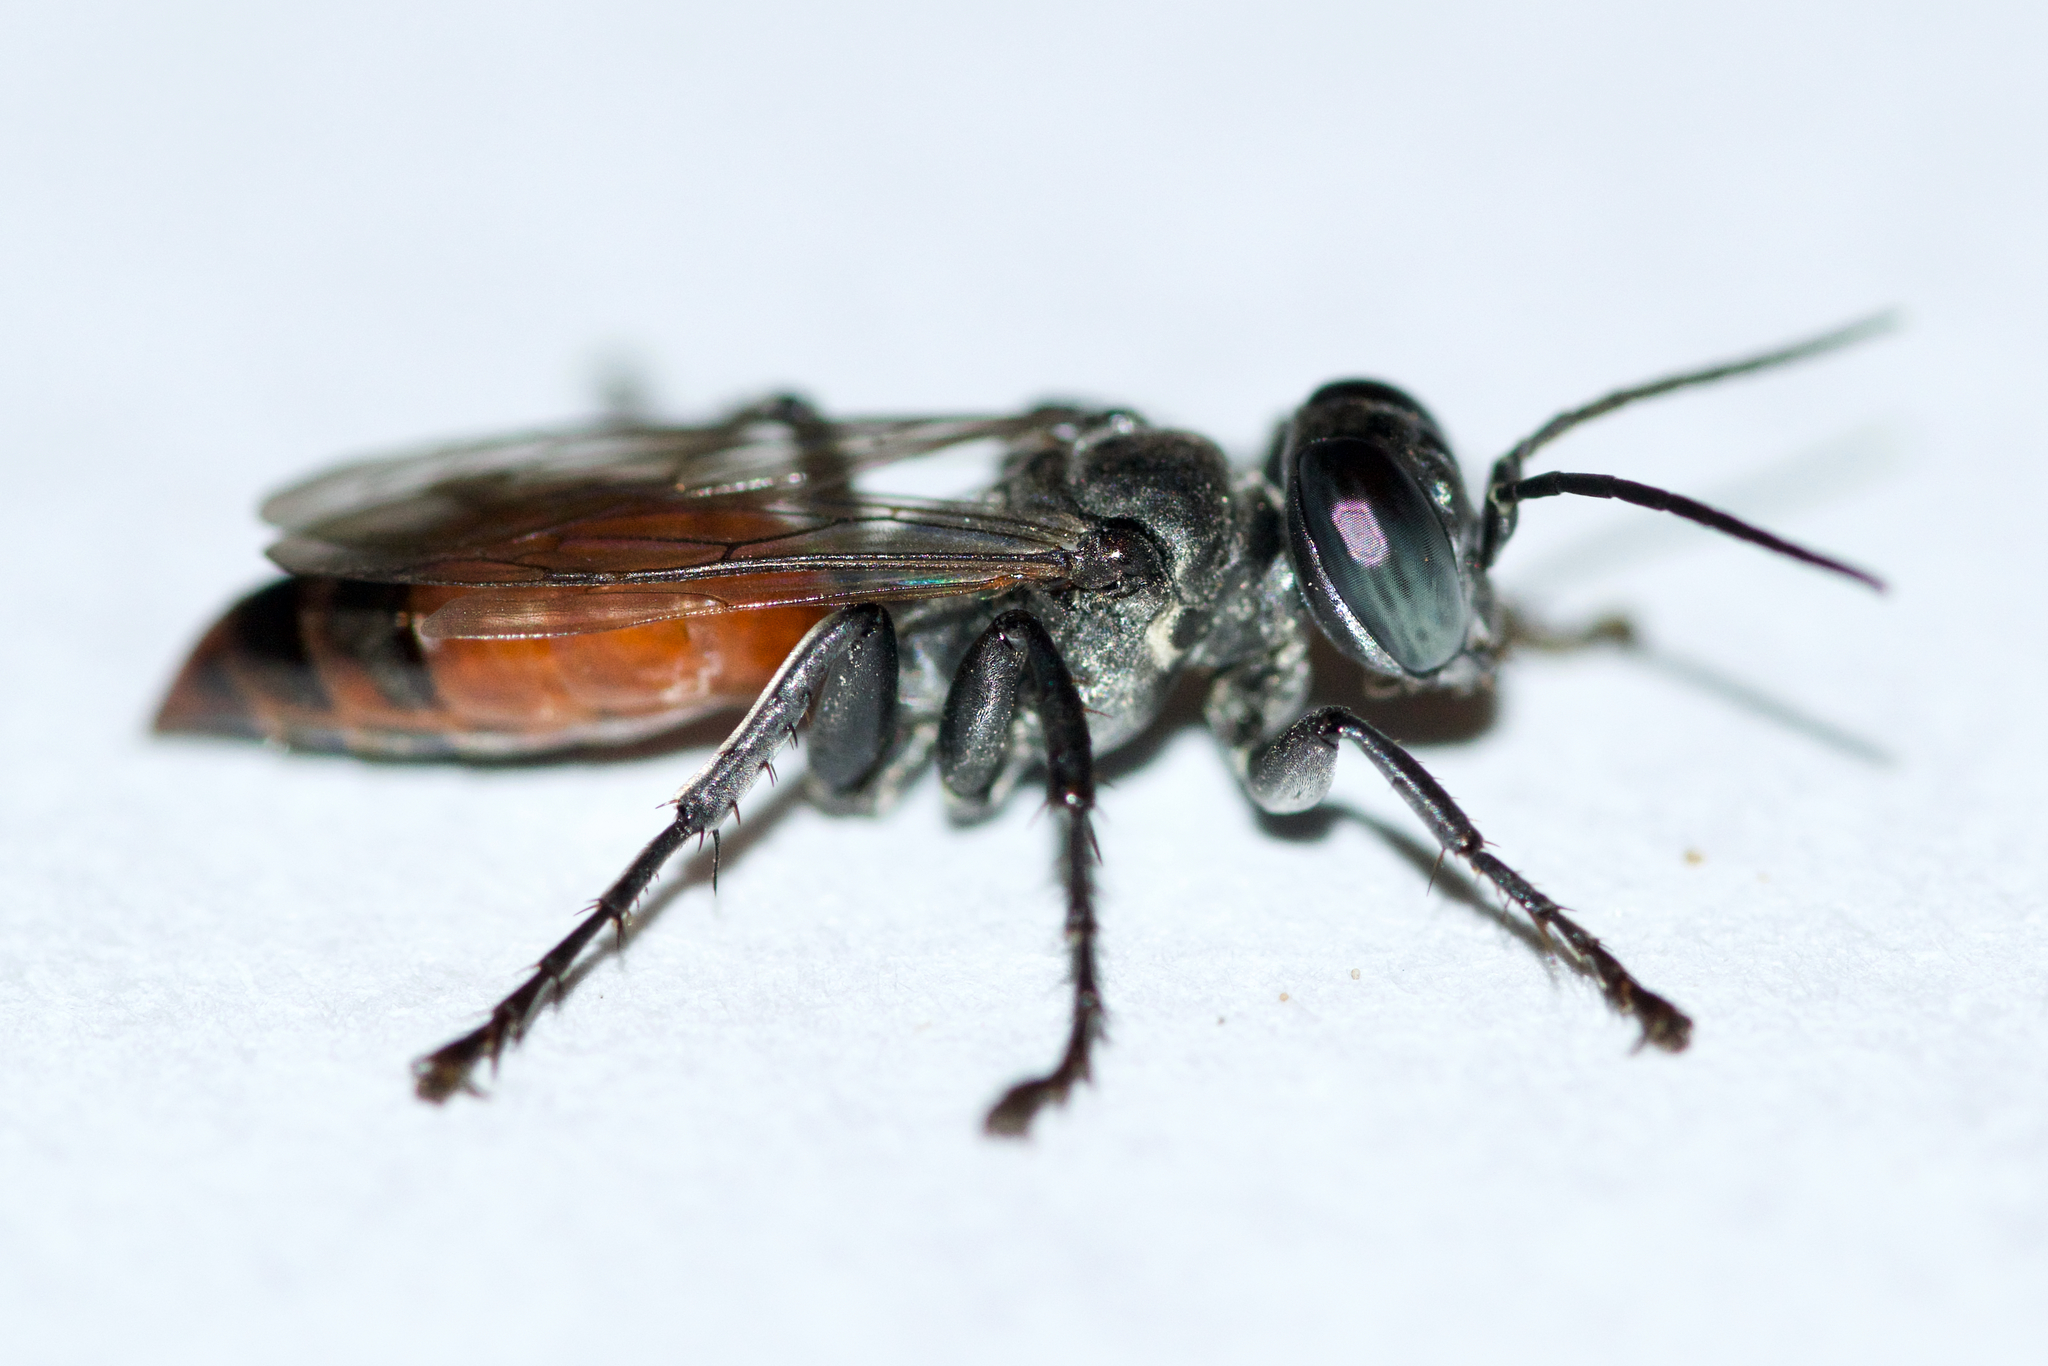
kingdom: Animalia
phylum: Arthropoda
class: Insecta
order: Hymenoptera
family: Crabronidae
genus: Tachysphex
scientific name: Tachysphex tarsatus
